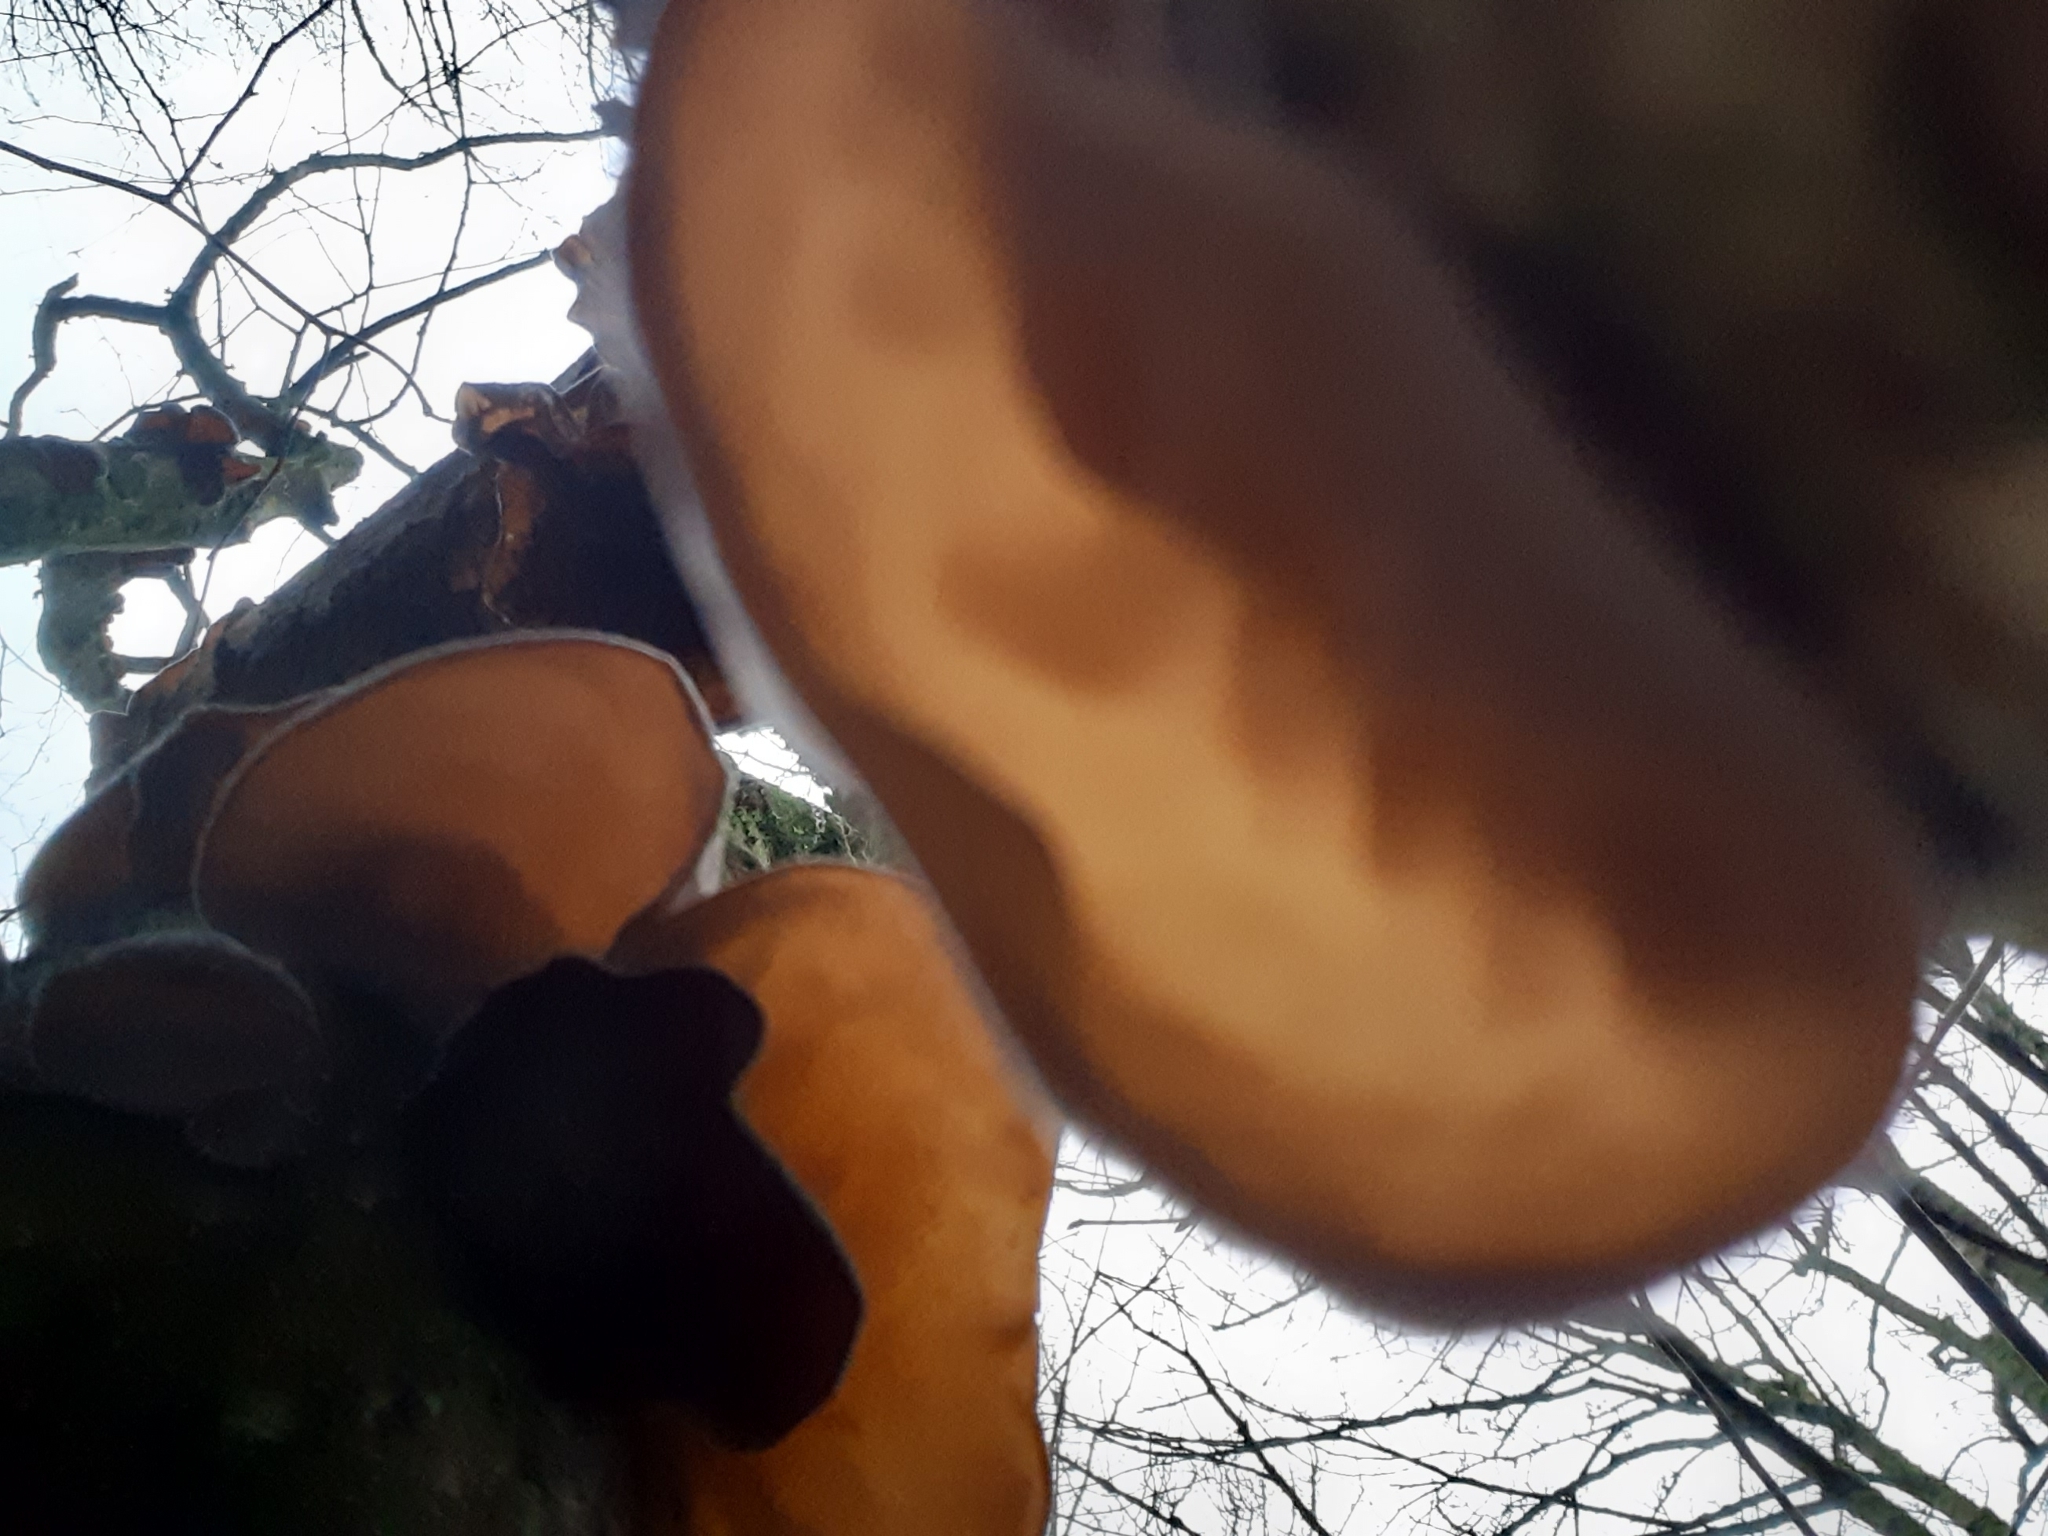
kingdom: Fungi
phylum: Basidiomycota
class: Agaricomycetes
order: Auriculariales
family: Auriculariaceae
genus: Auricularia
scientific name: Auricularia auricula-judae
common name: Jelly ear
